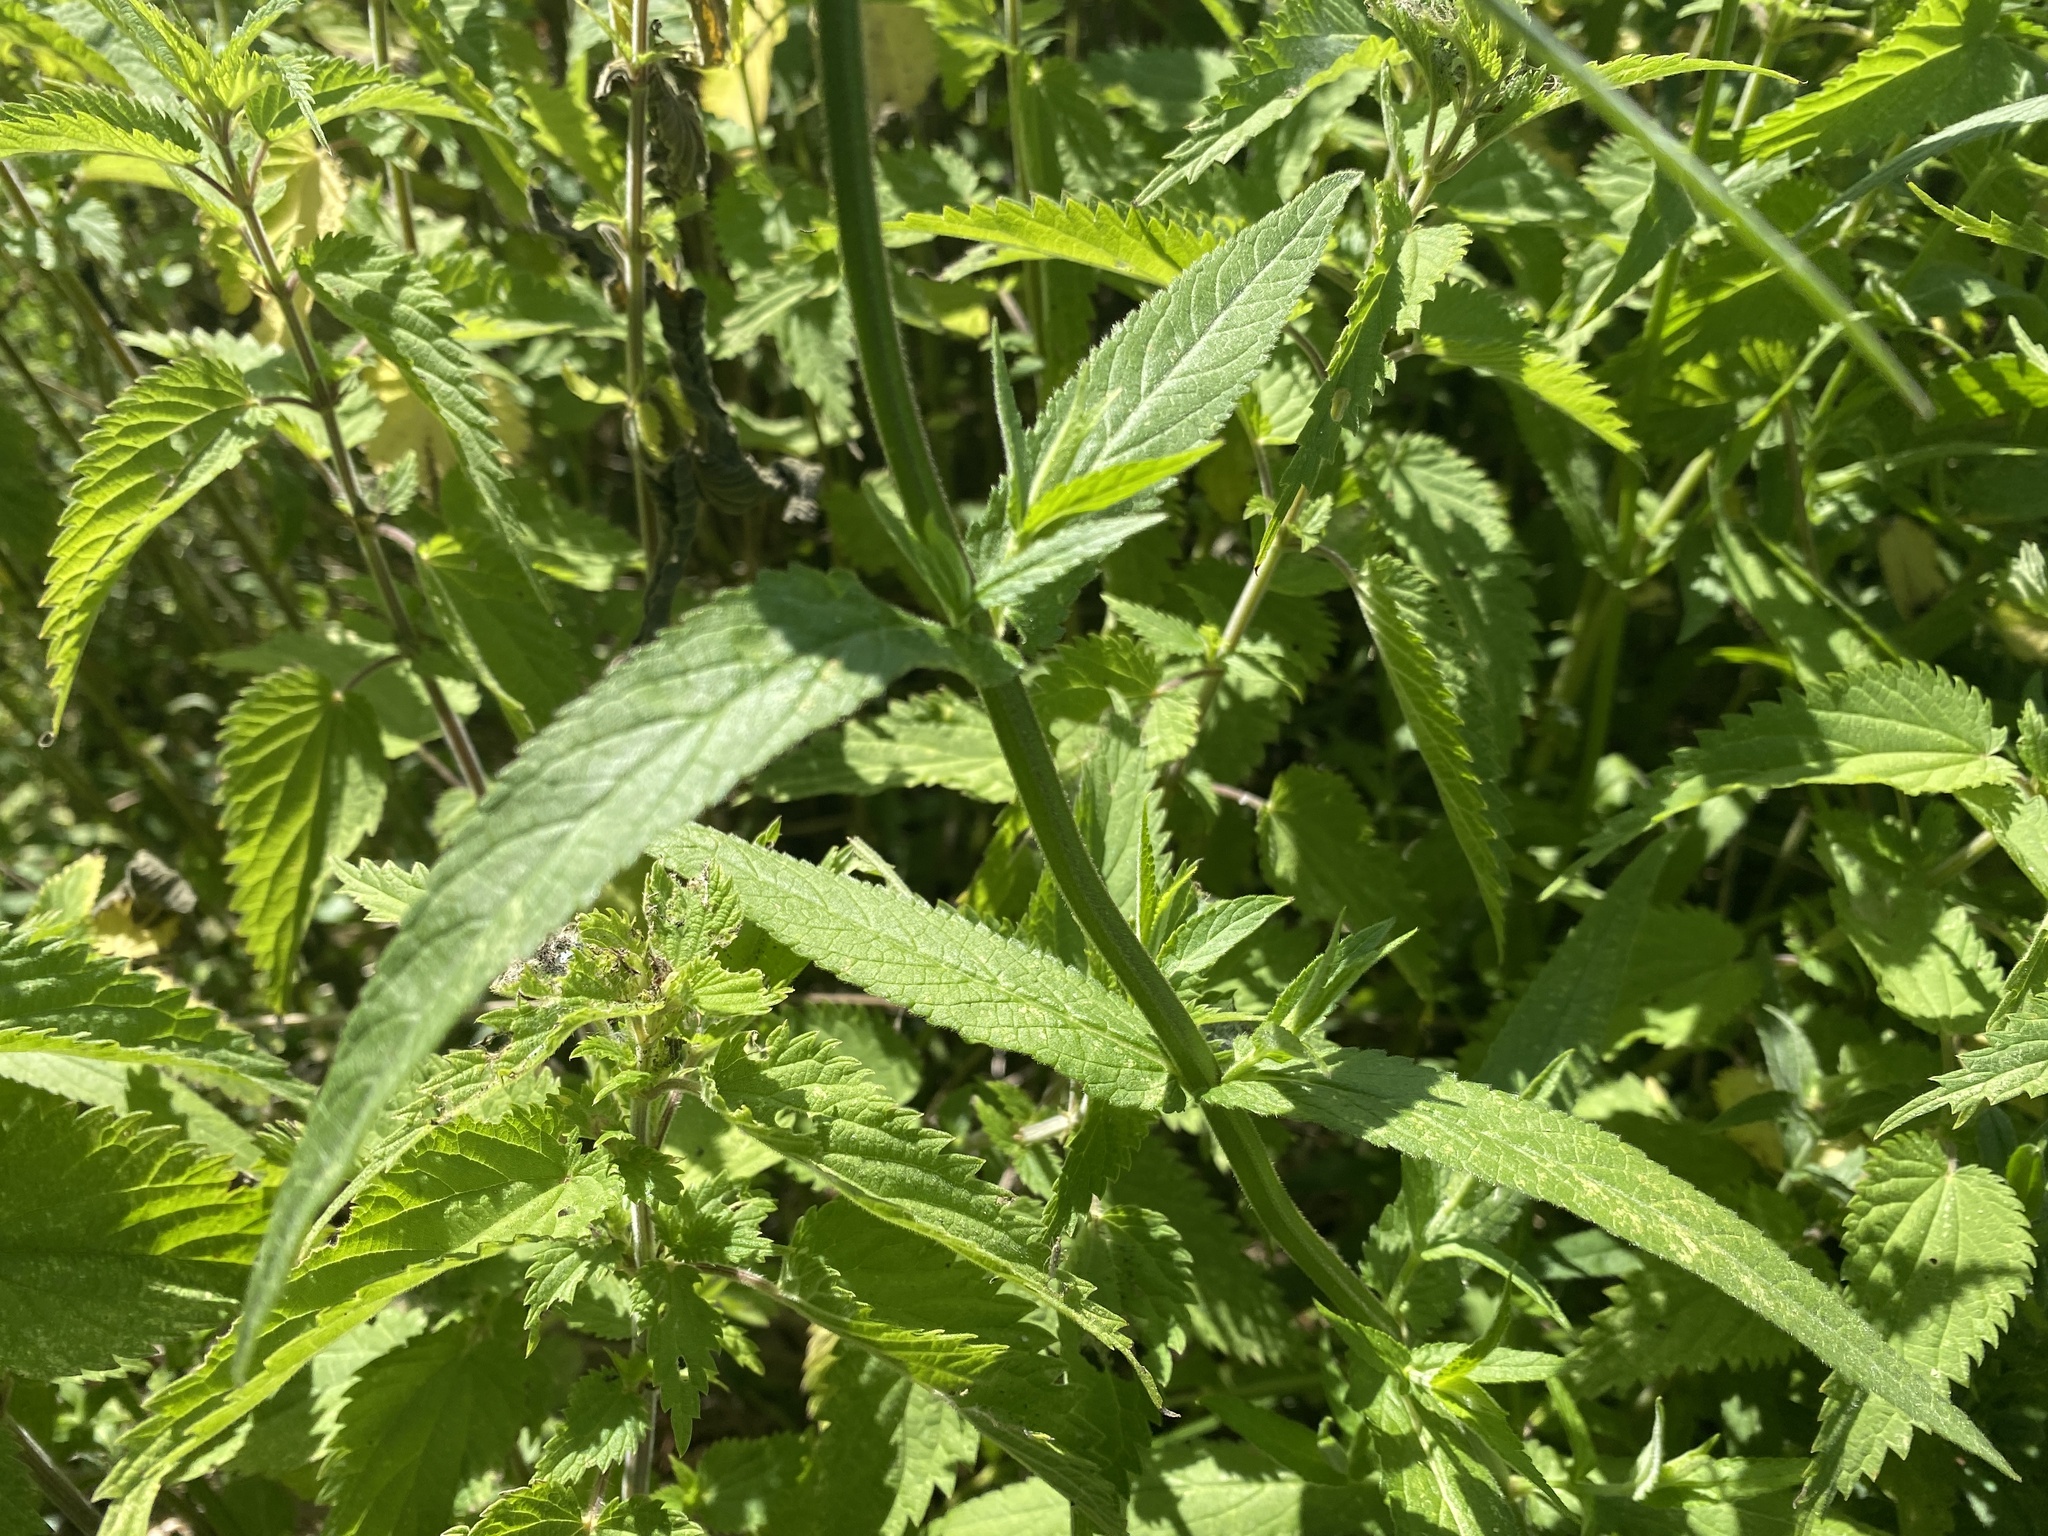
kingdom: Plantae
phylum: Tracheophyta
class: Magnoliopsida
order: Lamiales
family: Lamiaceae
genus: Stachys
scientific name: Stachys palustris
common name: Marsh woundwort
